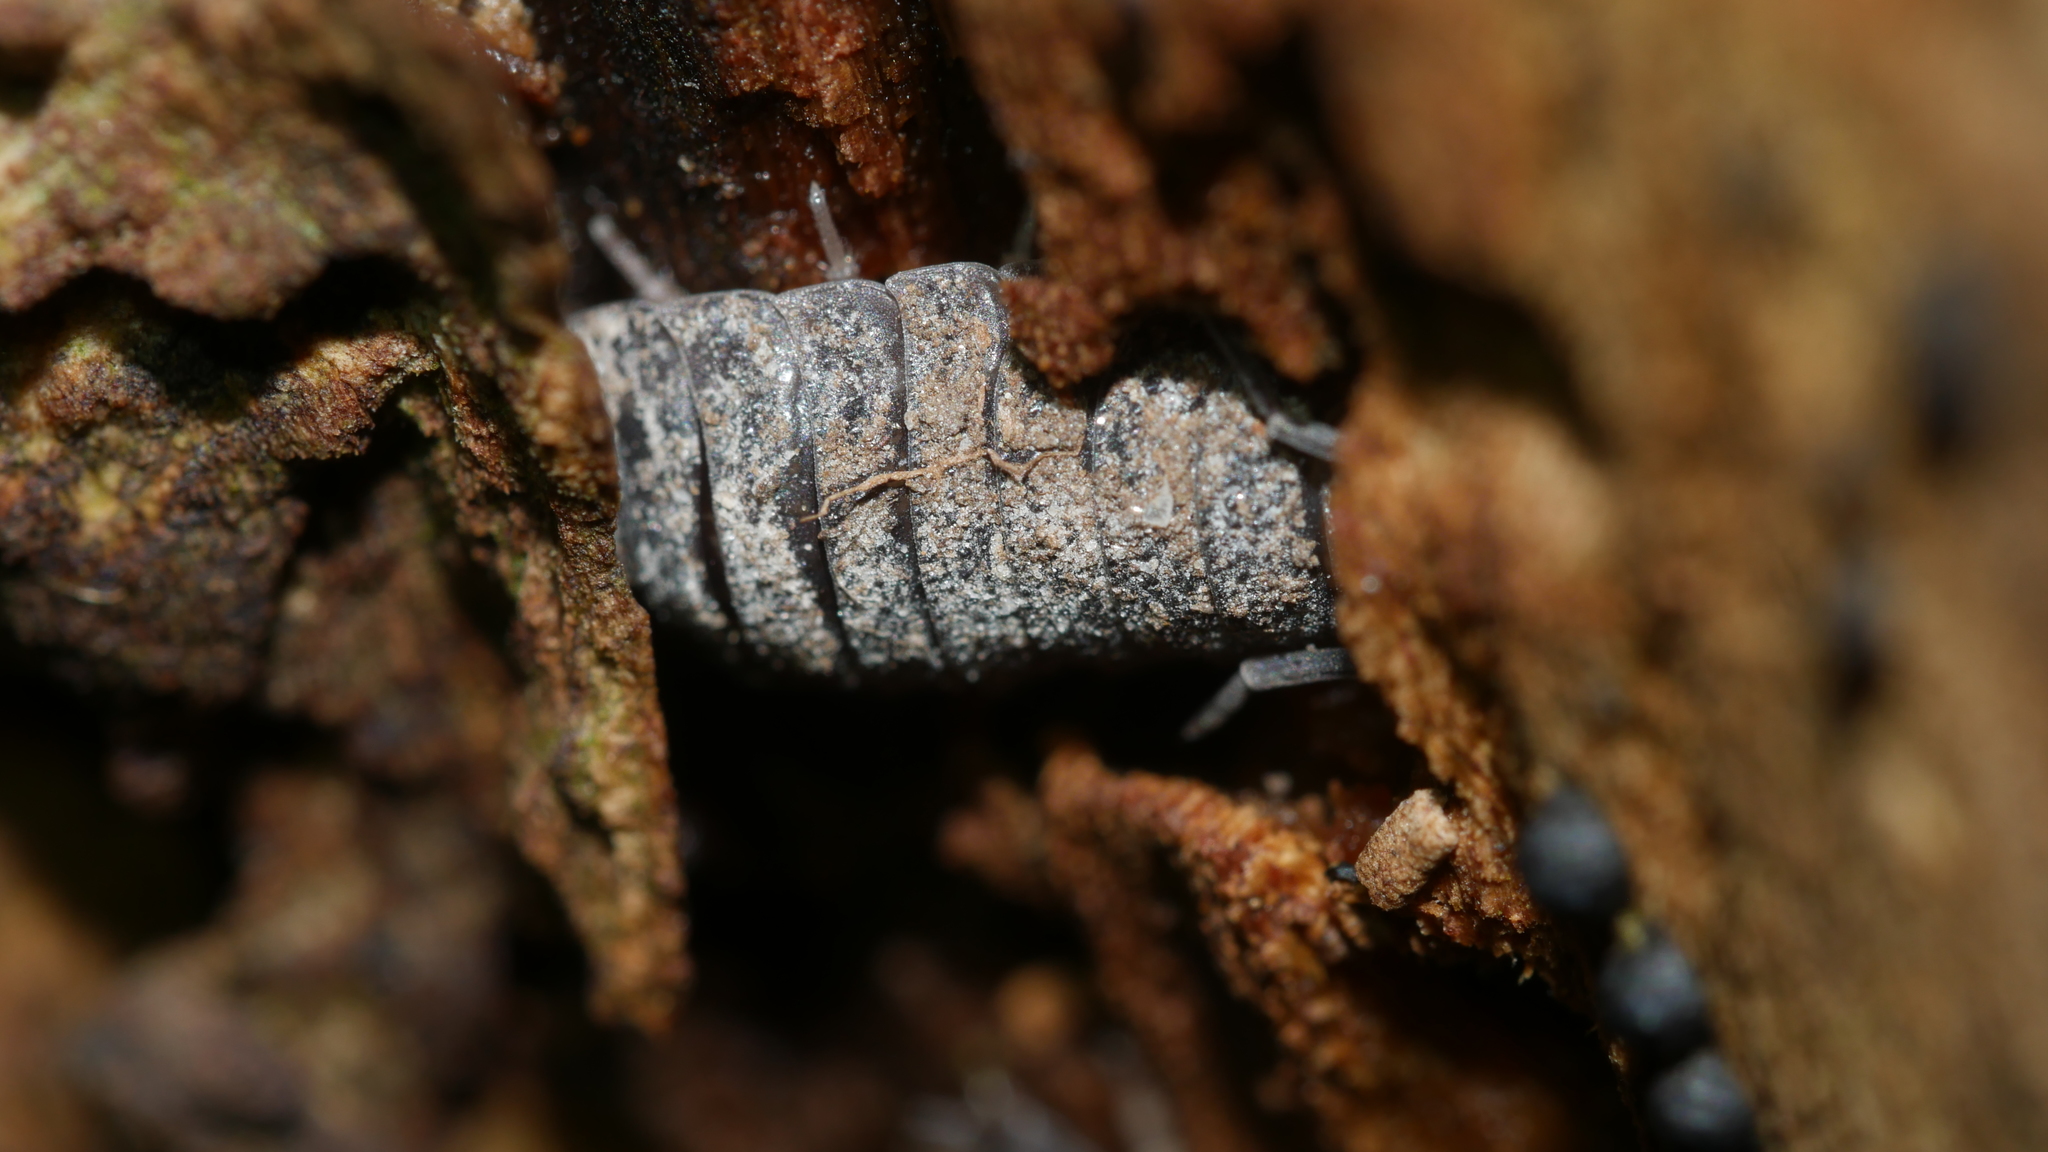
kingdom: Animalia
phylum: Arthropoda
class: Malacostraca
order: Isopoda
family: Porcellionidae
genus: Porcellio
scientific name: Porcellio scaber
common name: Common rough woodlouse
